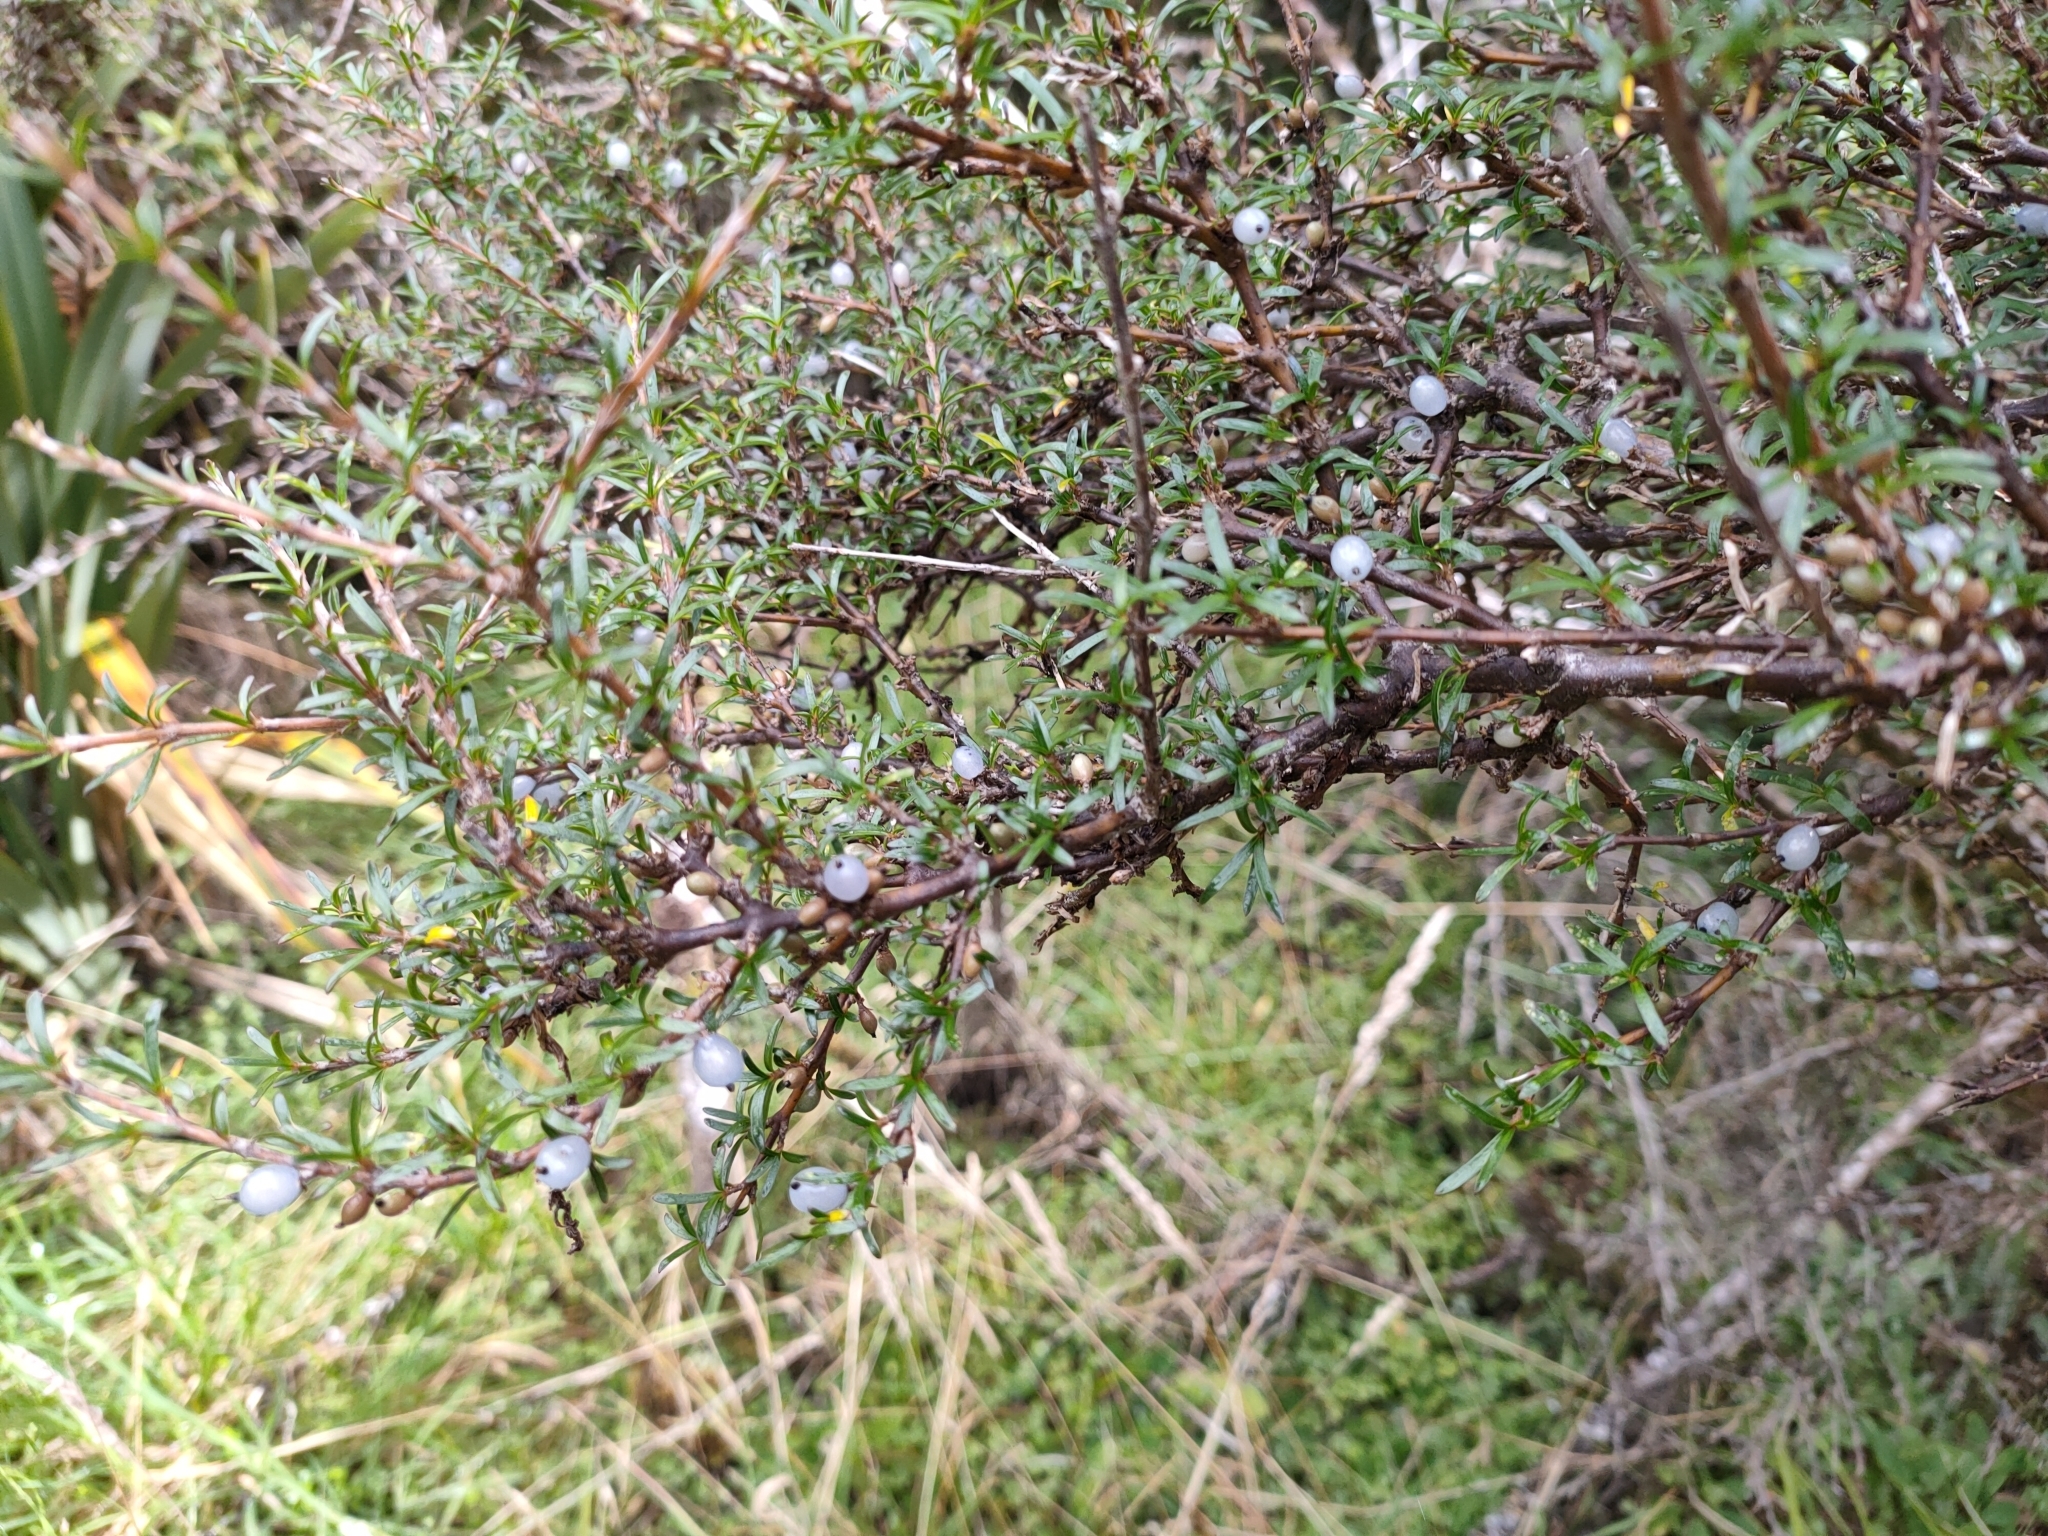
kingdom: Plantae
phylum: Tracheophyta
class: Magnoliopsida
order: Gentianales
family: Rubiaceae
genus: Coprosma
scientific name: Coprosma rugosa
